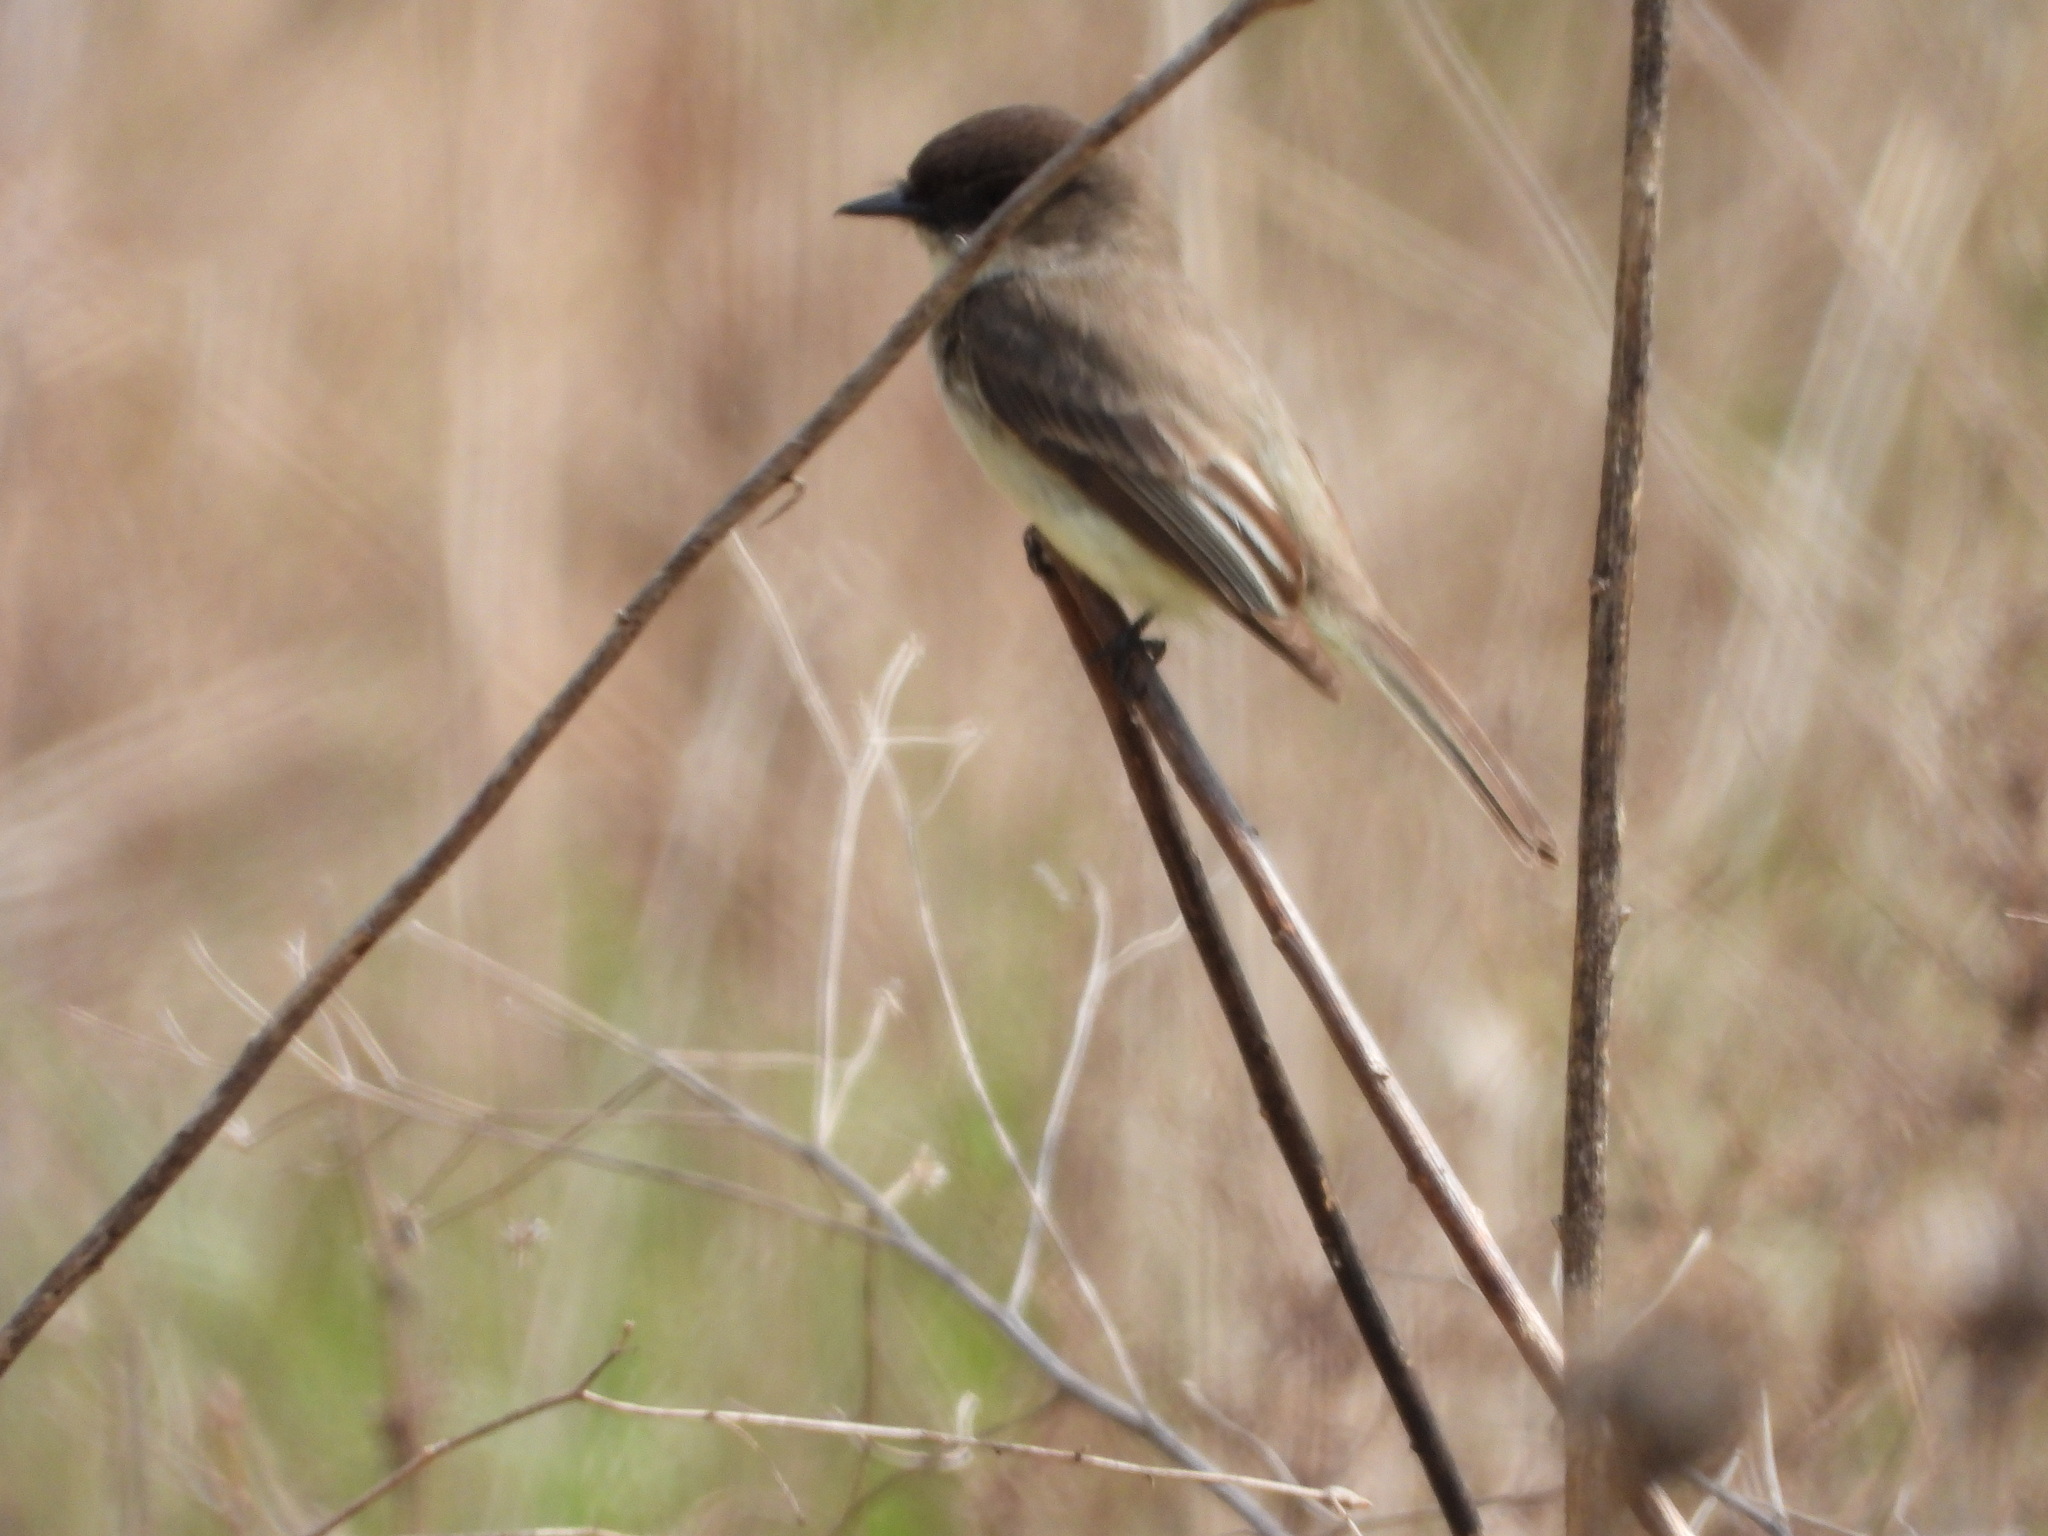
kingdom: Animalia
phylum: Chordata
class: Aves
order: Passeriformes
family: Tyrannidae
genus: Sayornis
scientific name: Sayornis phoebe
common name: Eastern phoebe
